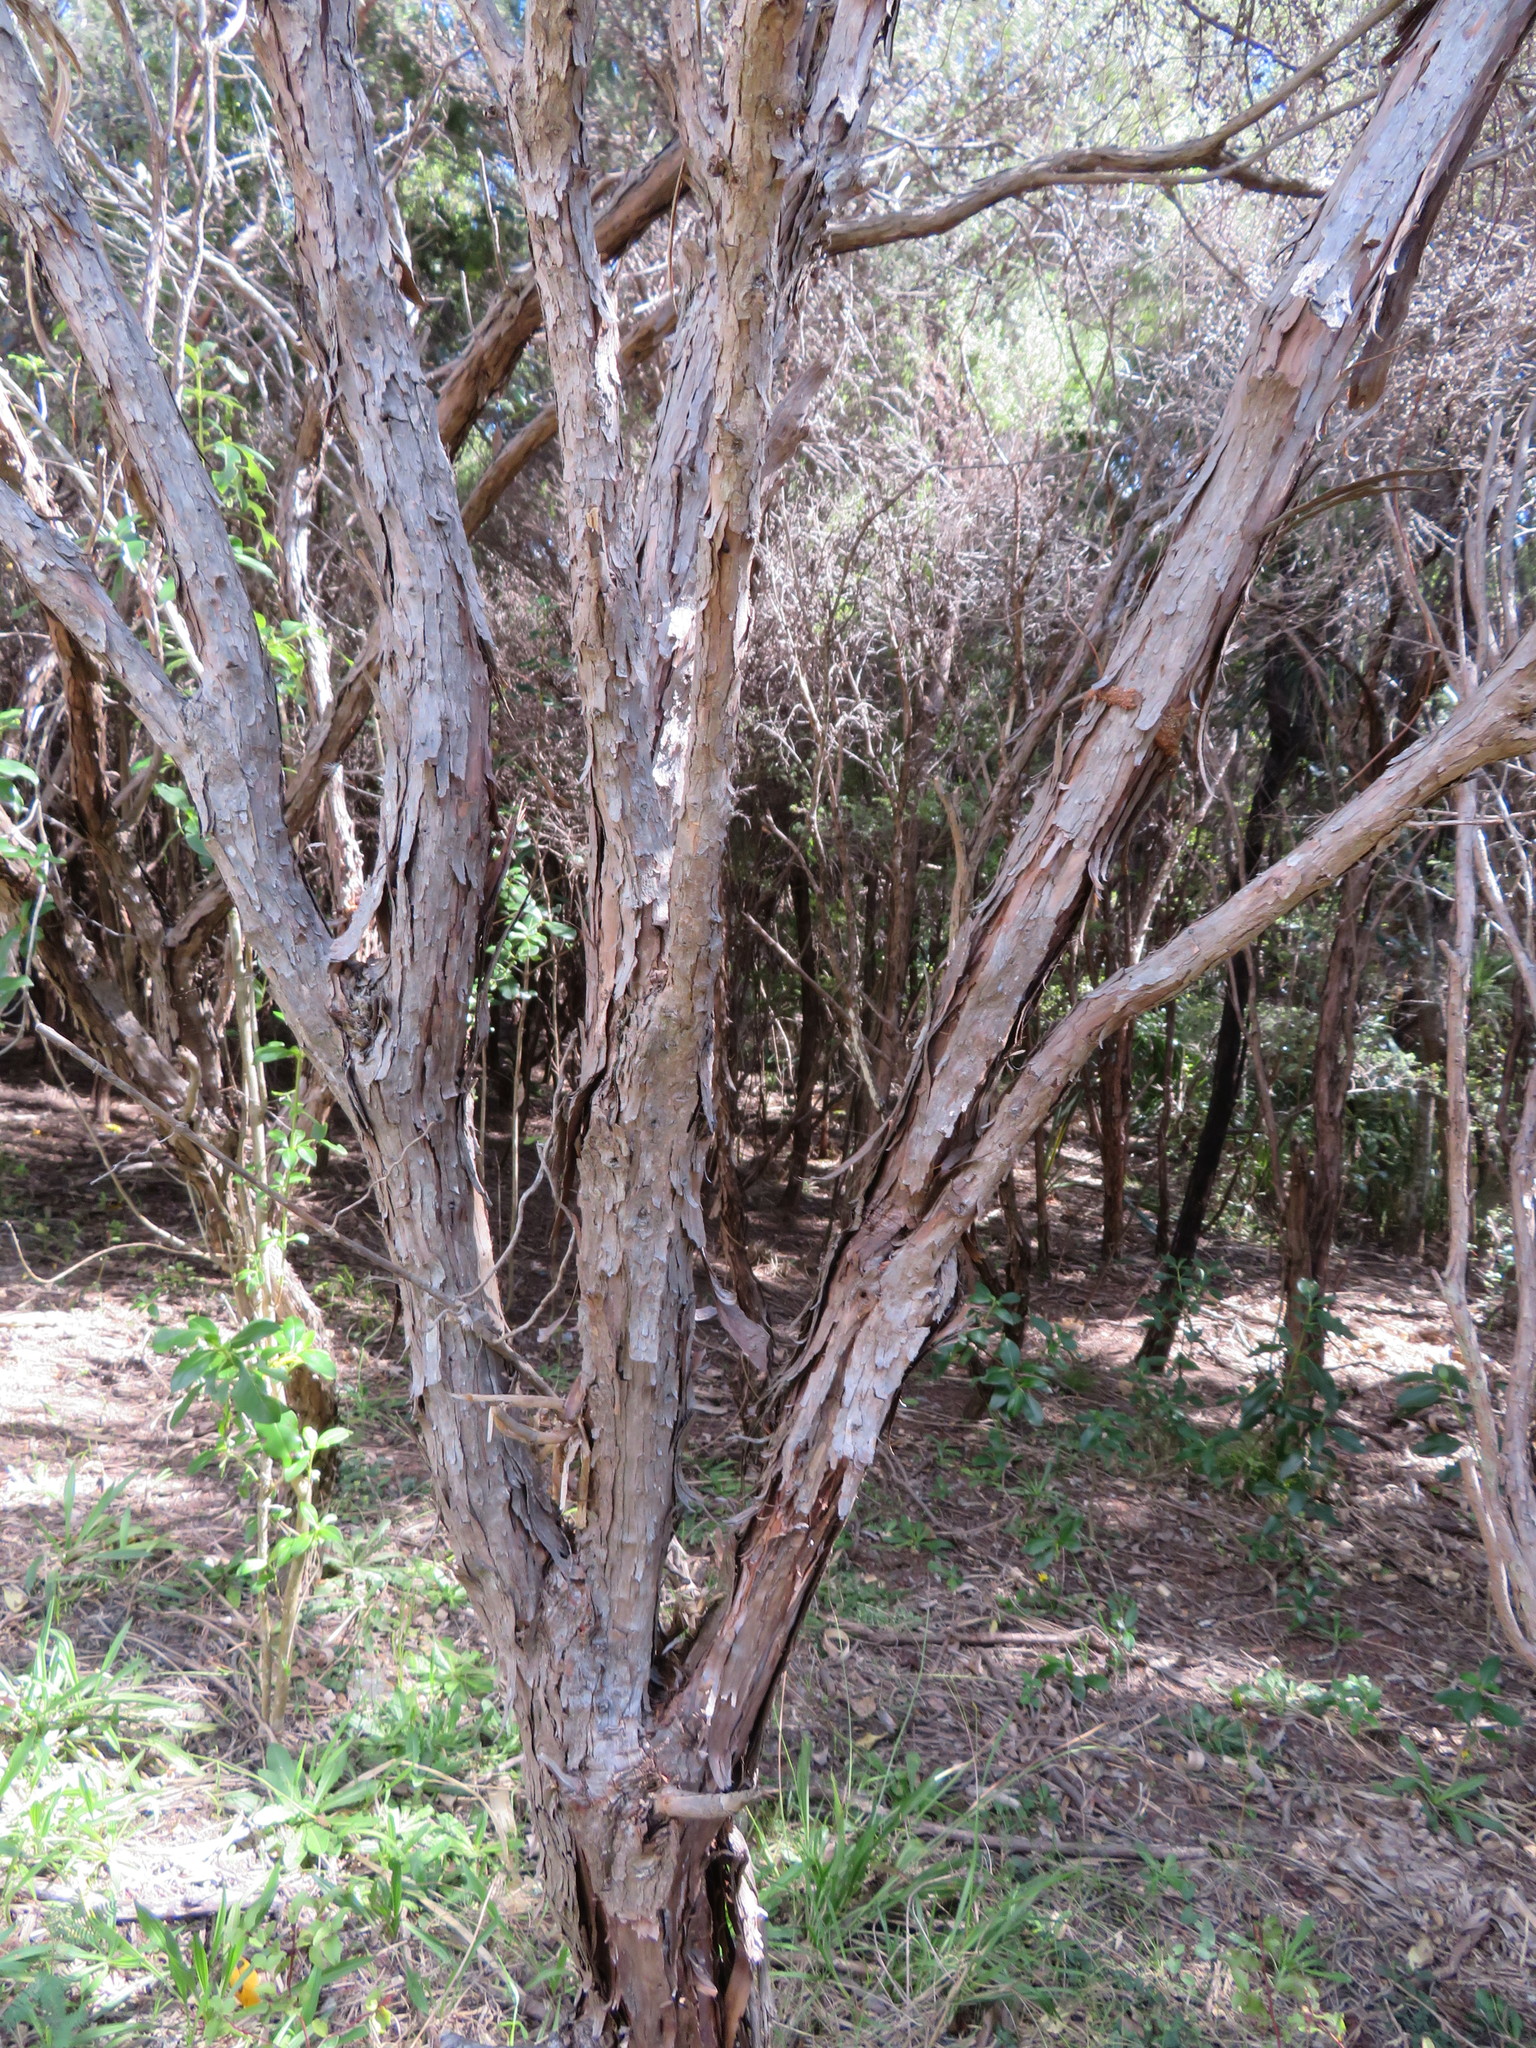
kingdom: Plantae
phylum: Tracheophyta
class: Magnoliopsida
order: Myrtales
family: Myrtaceae
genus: Leptospermum
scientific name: Leptospermum scoparium
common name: Broom tea-tree
